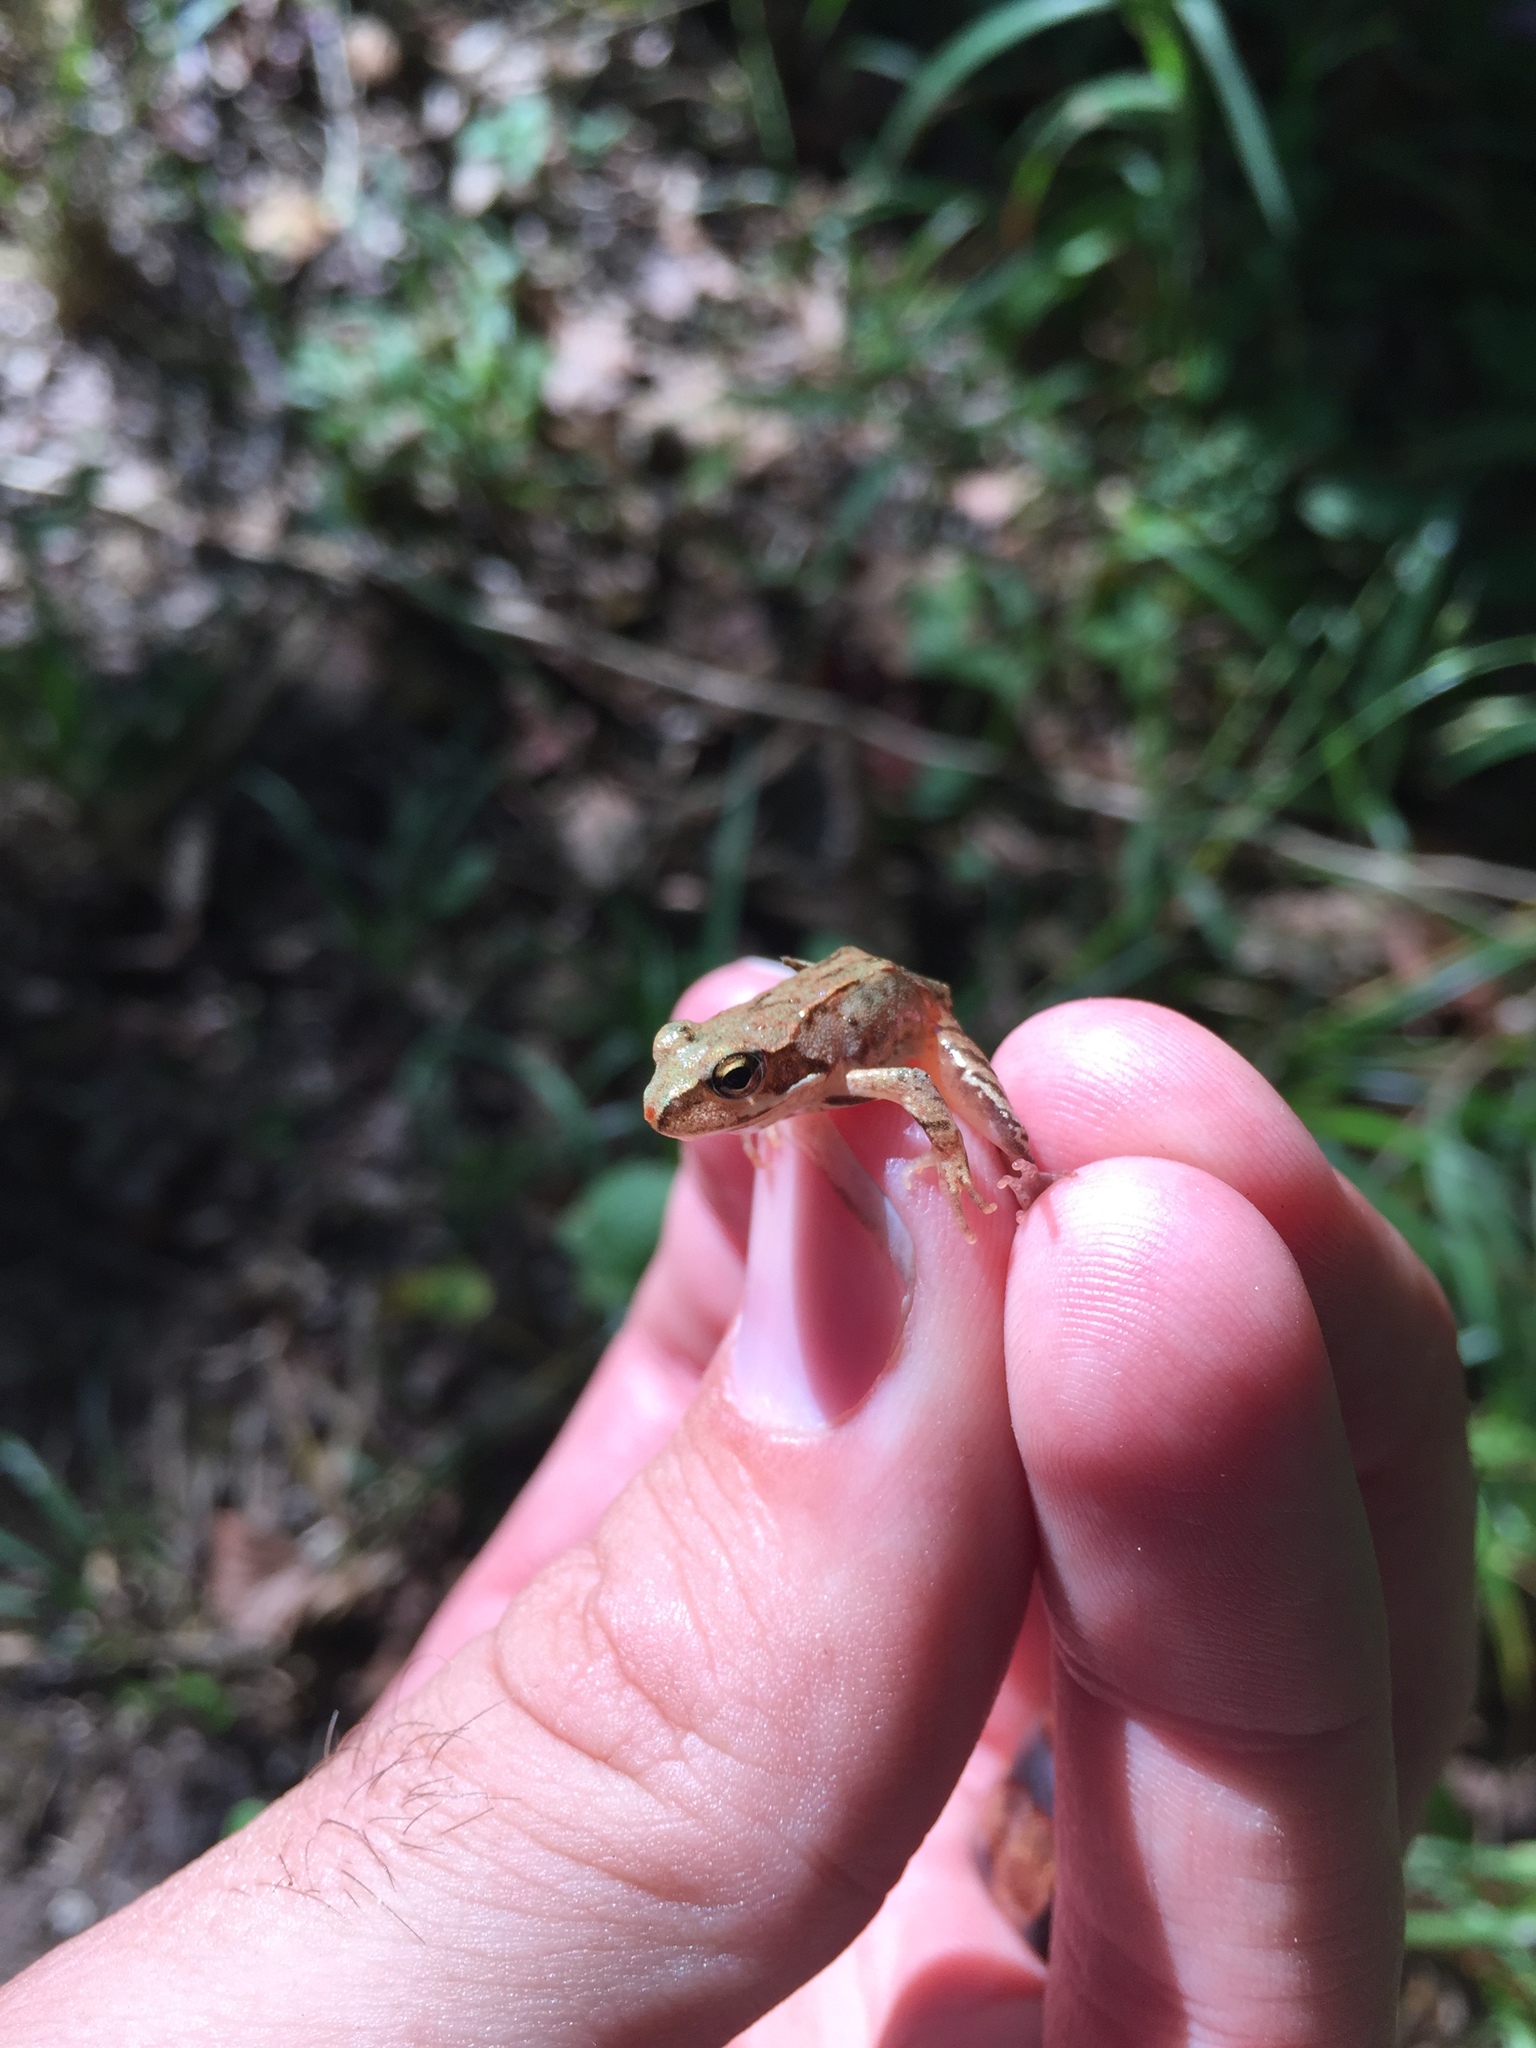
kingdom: Animalia
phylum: Chordata
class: Amphibia
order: Anura
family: Ranidae
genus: Rana
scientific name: Rana temporaria
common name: Common frog
